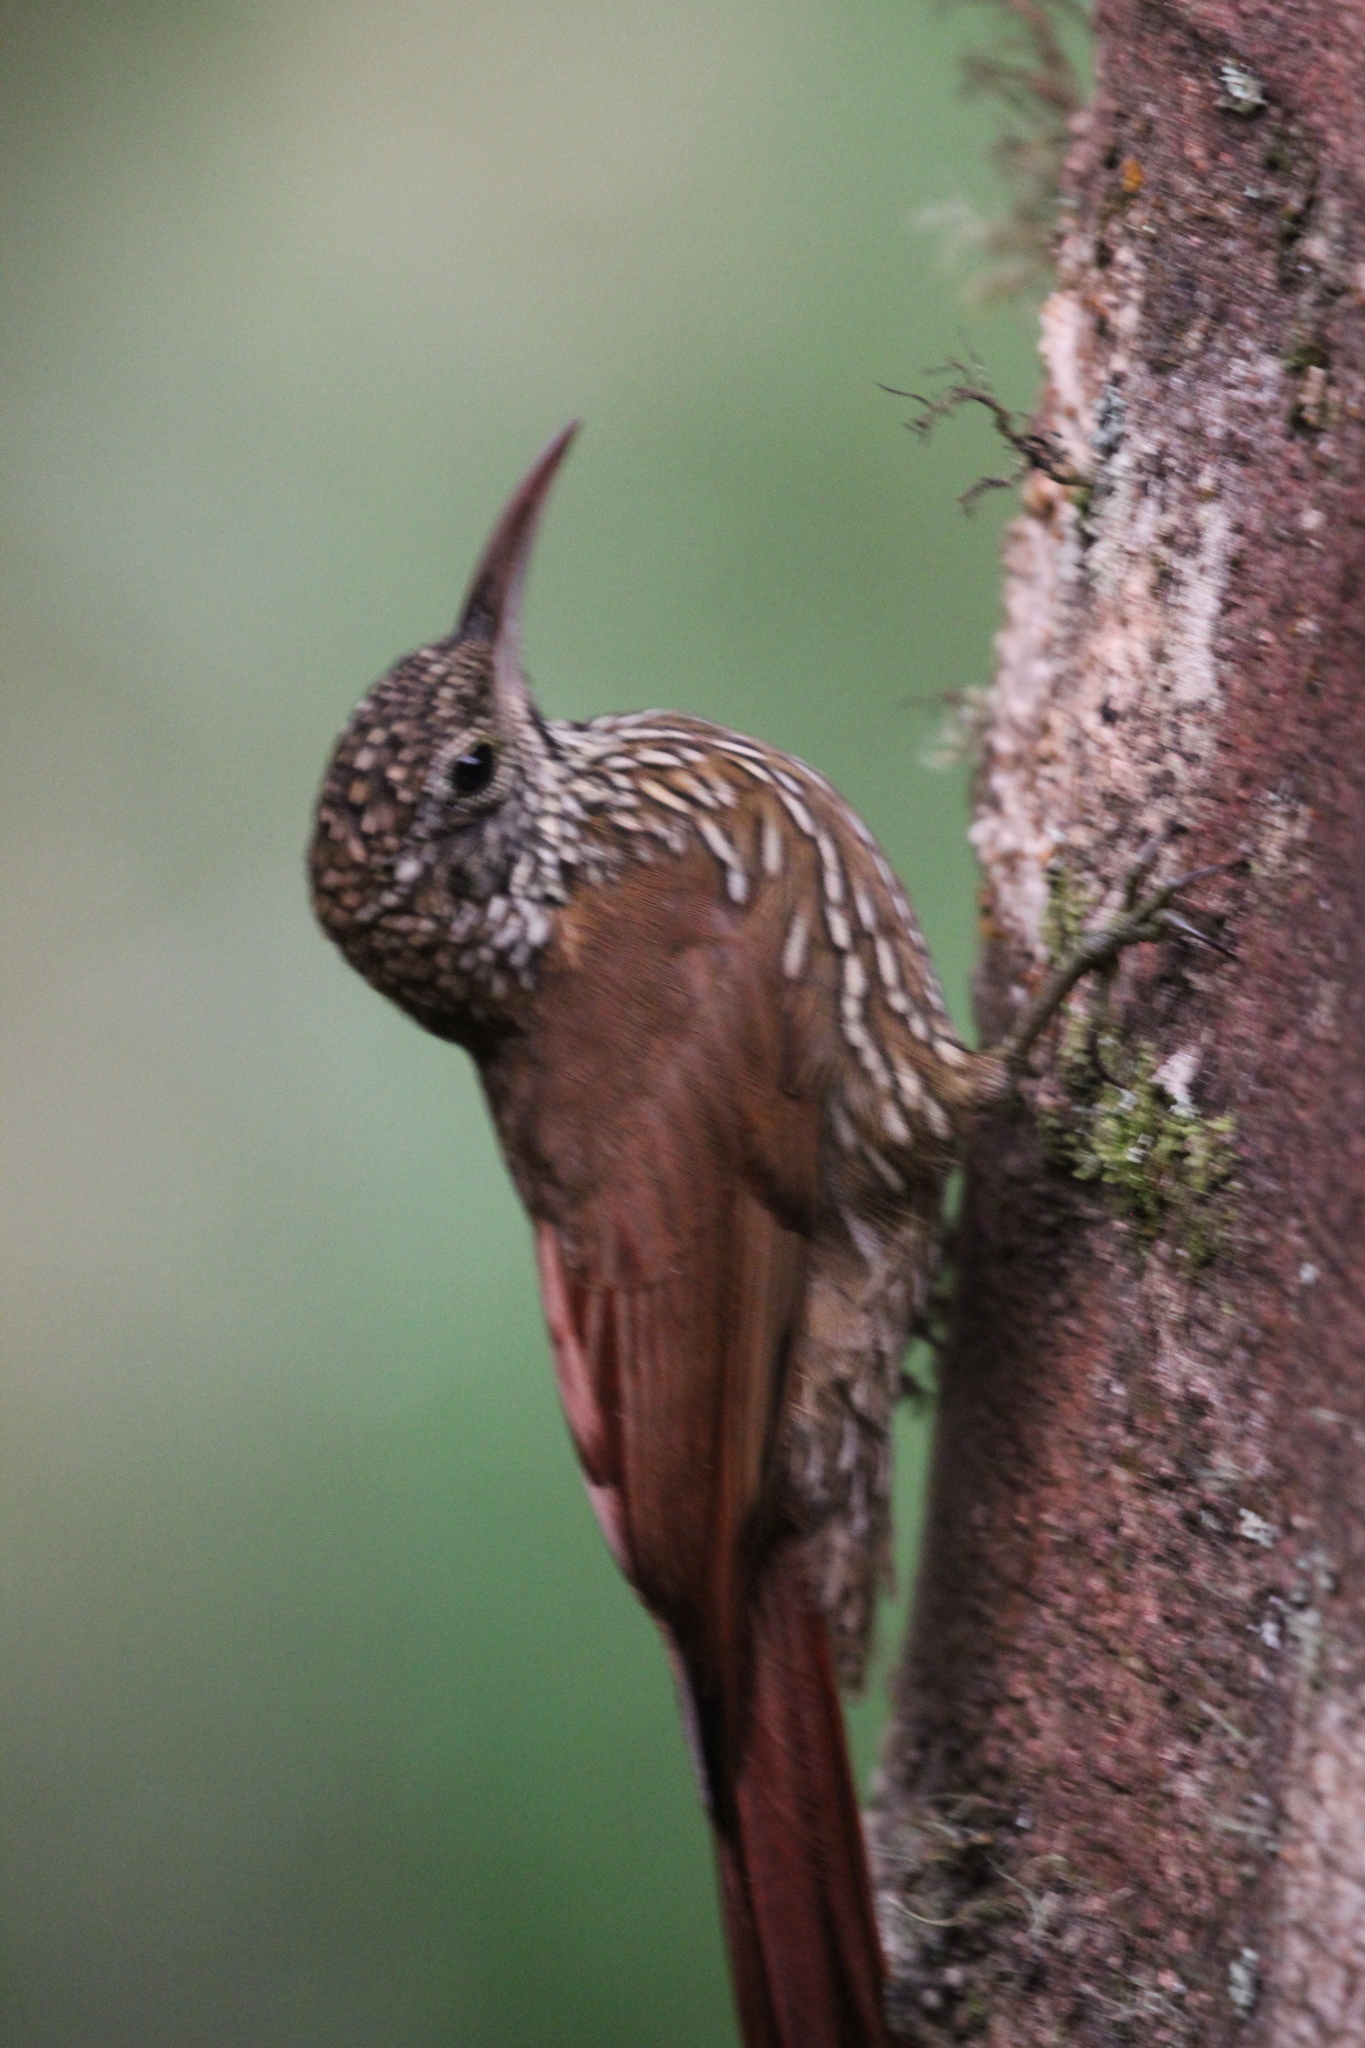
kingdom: Animalia
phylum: Chordata
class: Aves
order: Passeriformes
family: Furnariidae
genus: Lepidocolaptes
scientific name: Lepidocolaptes lacrymiger
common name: Montane woodcreeper
